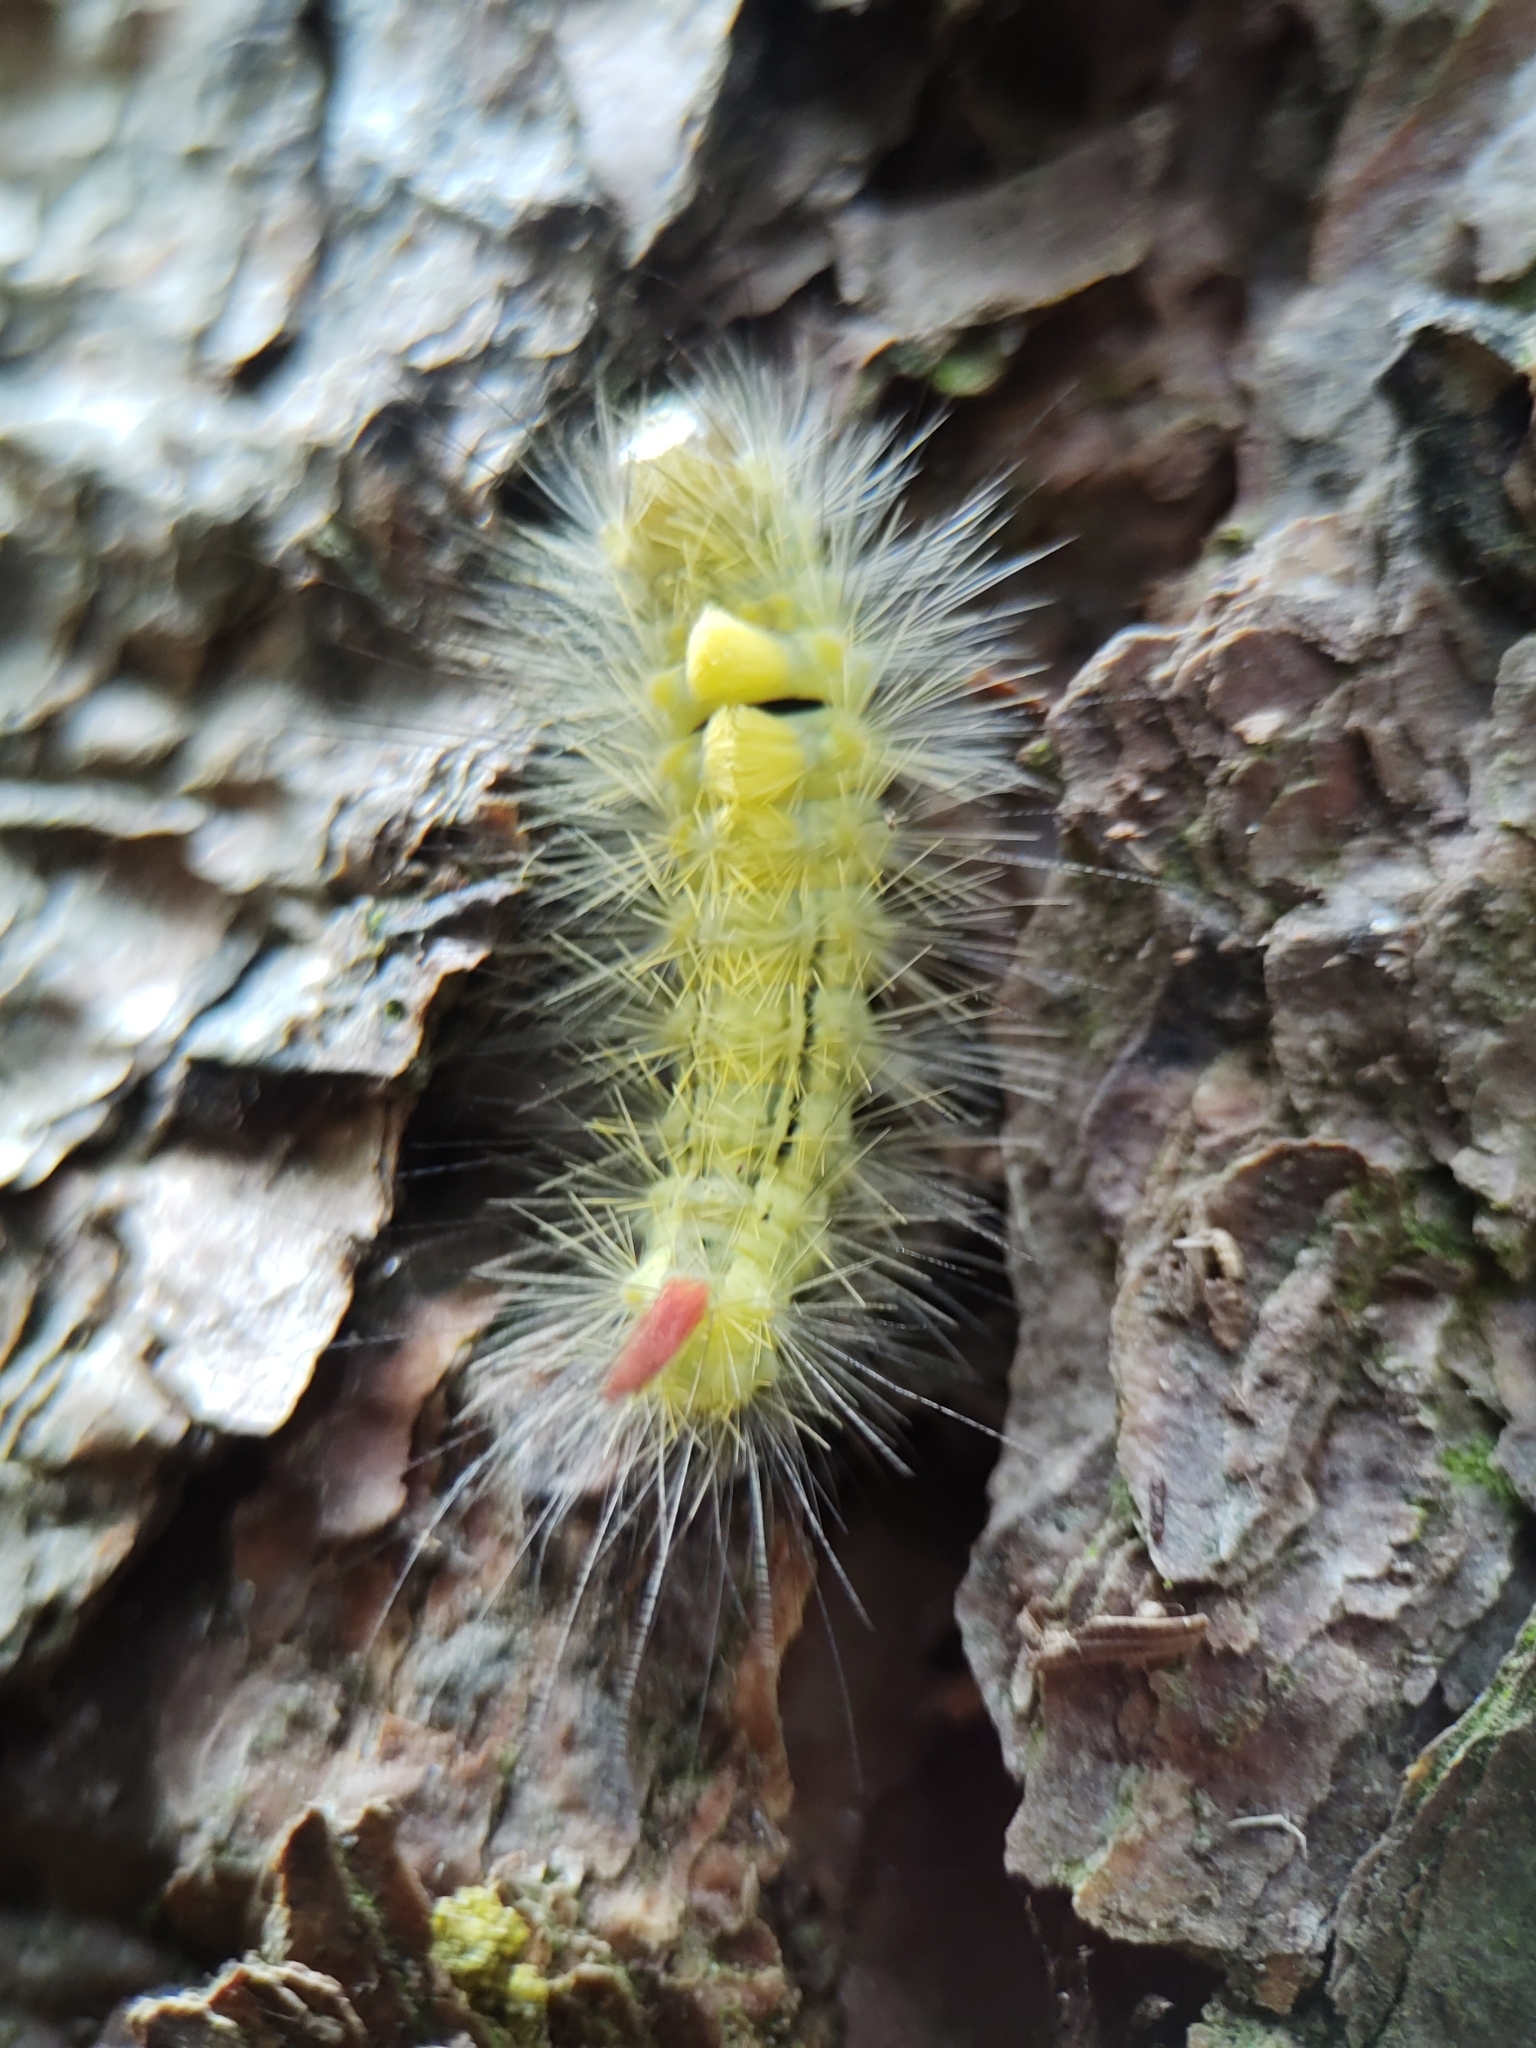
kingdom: Animalia
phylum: Arthropoda
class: Insecta
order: Lepidoptera
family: Erebidae
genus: Calliteara
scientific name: Calliteara pudibunda
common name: Pale tussock
